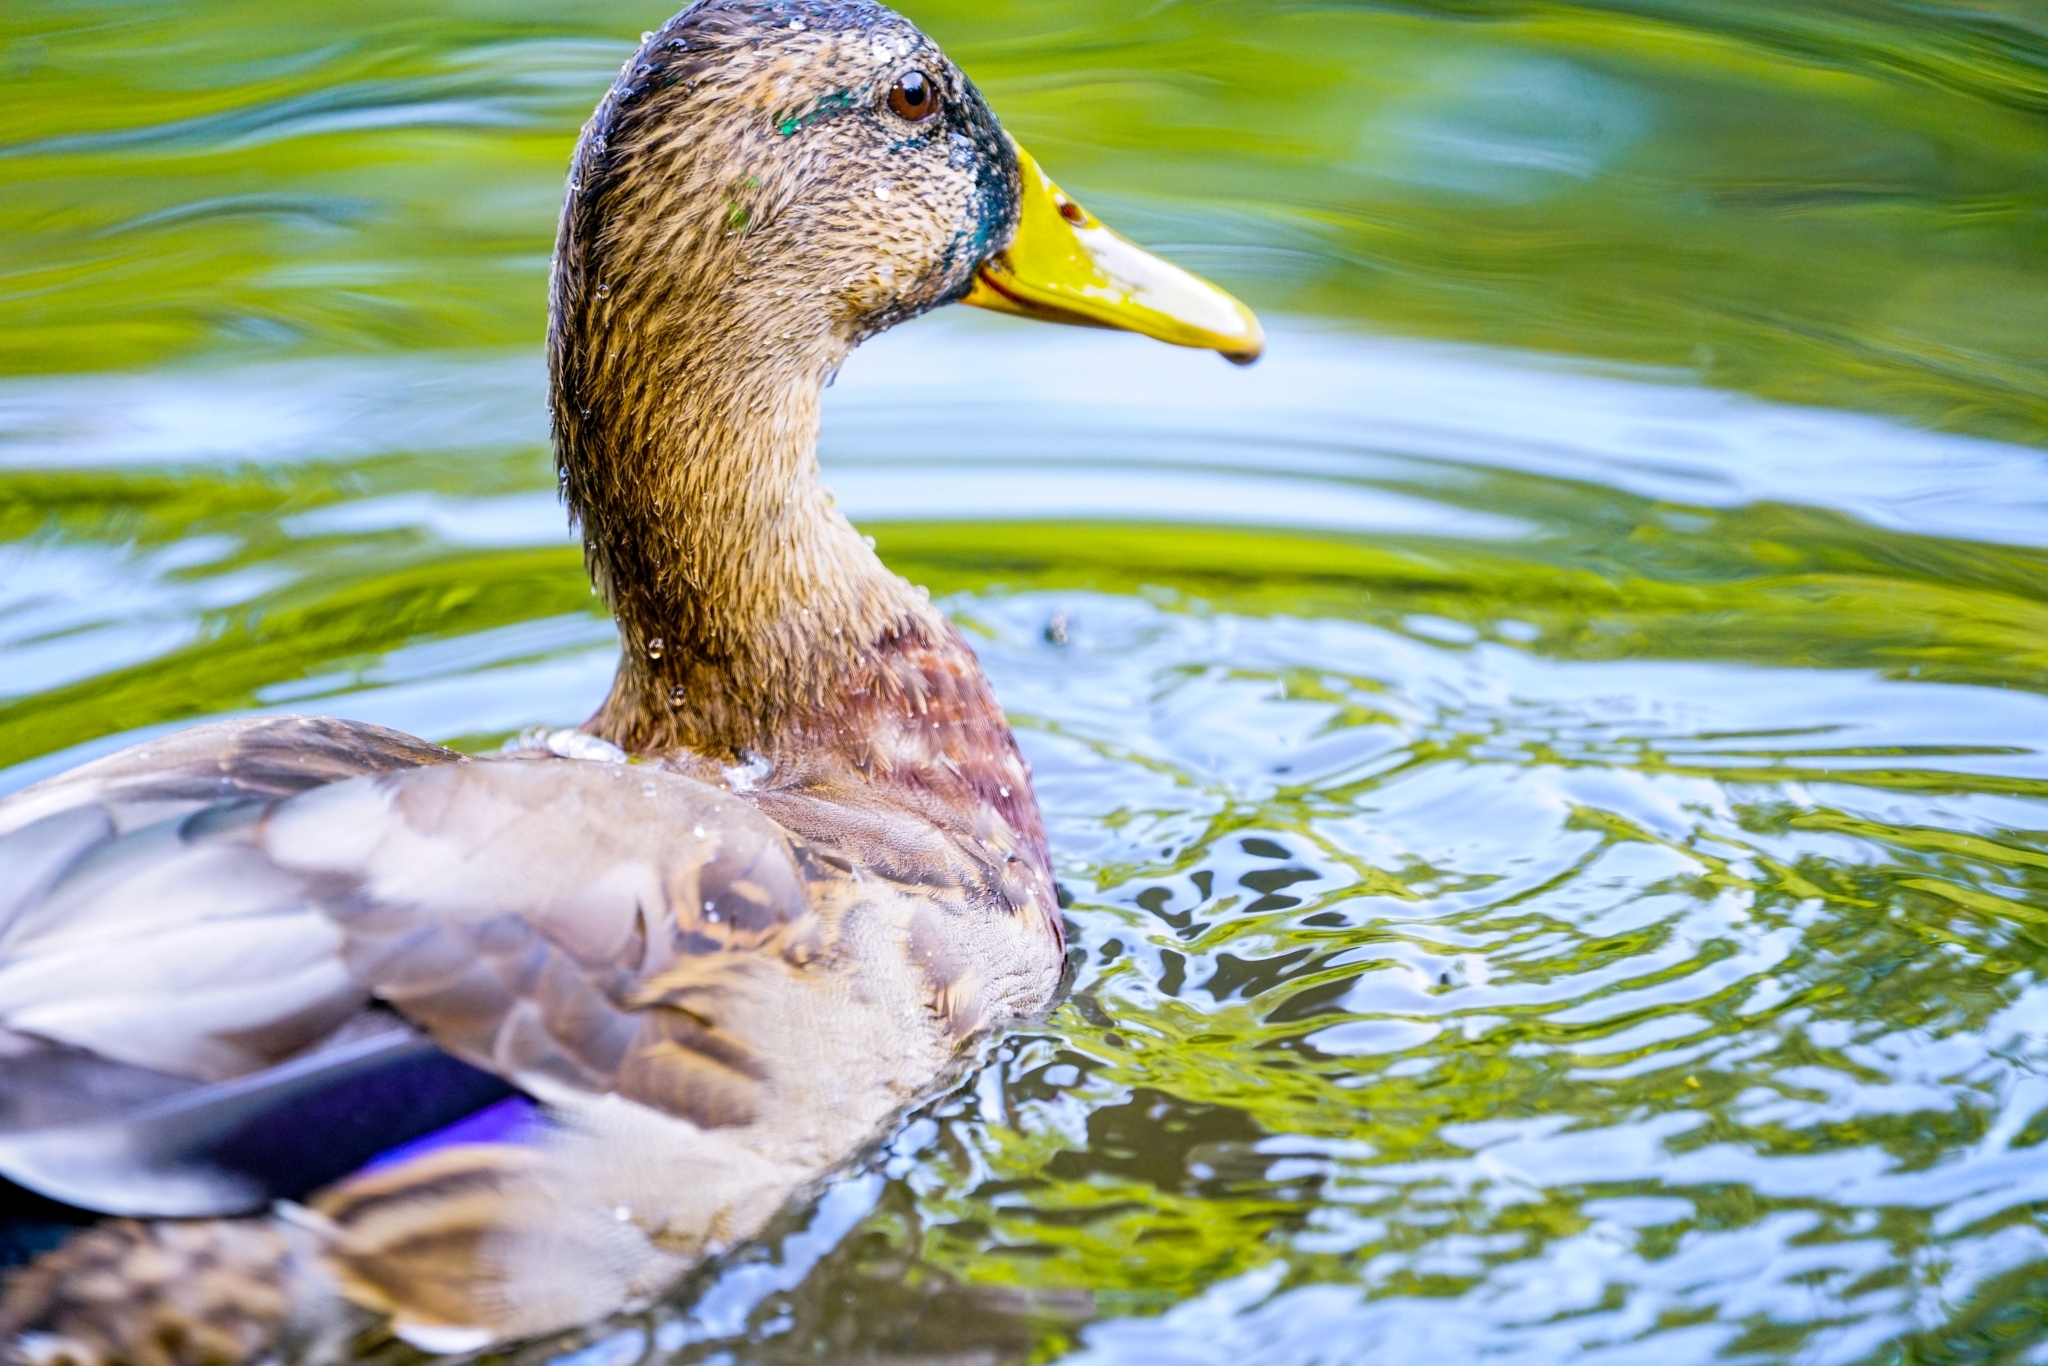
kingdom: Animalia
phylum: Chordata
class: Aves
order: Anseriformes
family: Anatidae
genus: Anas
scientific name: Anas platyrhynchos
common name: Mallard
